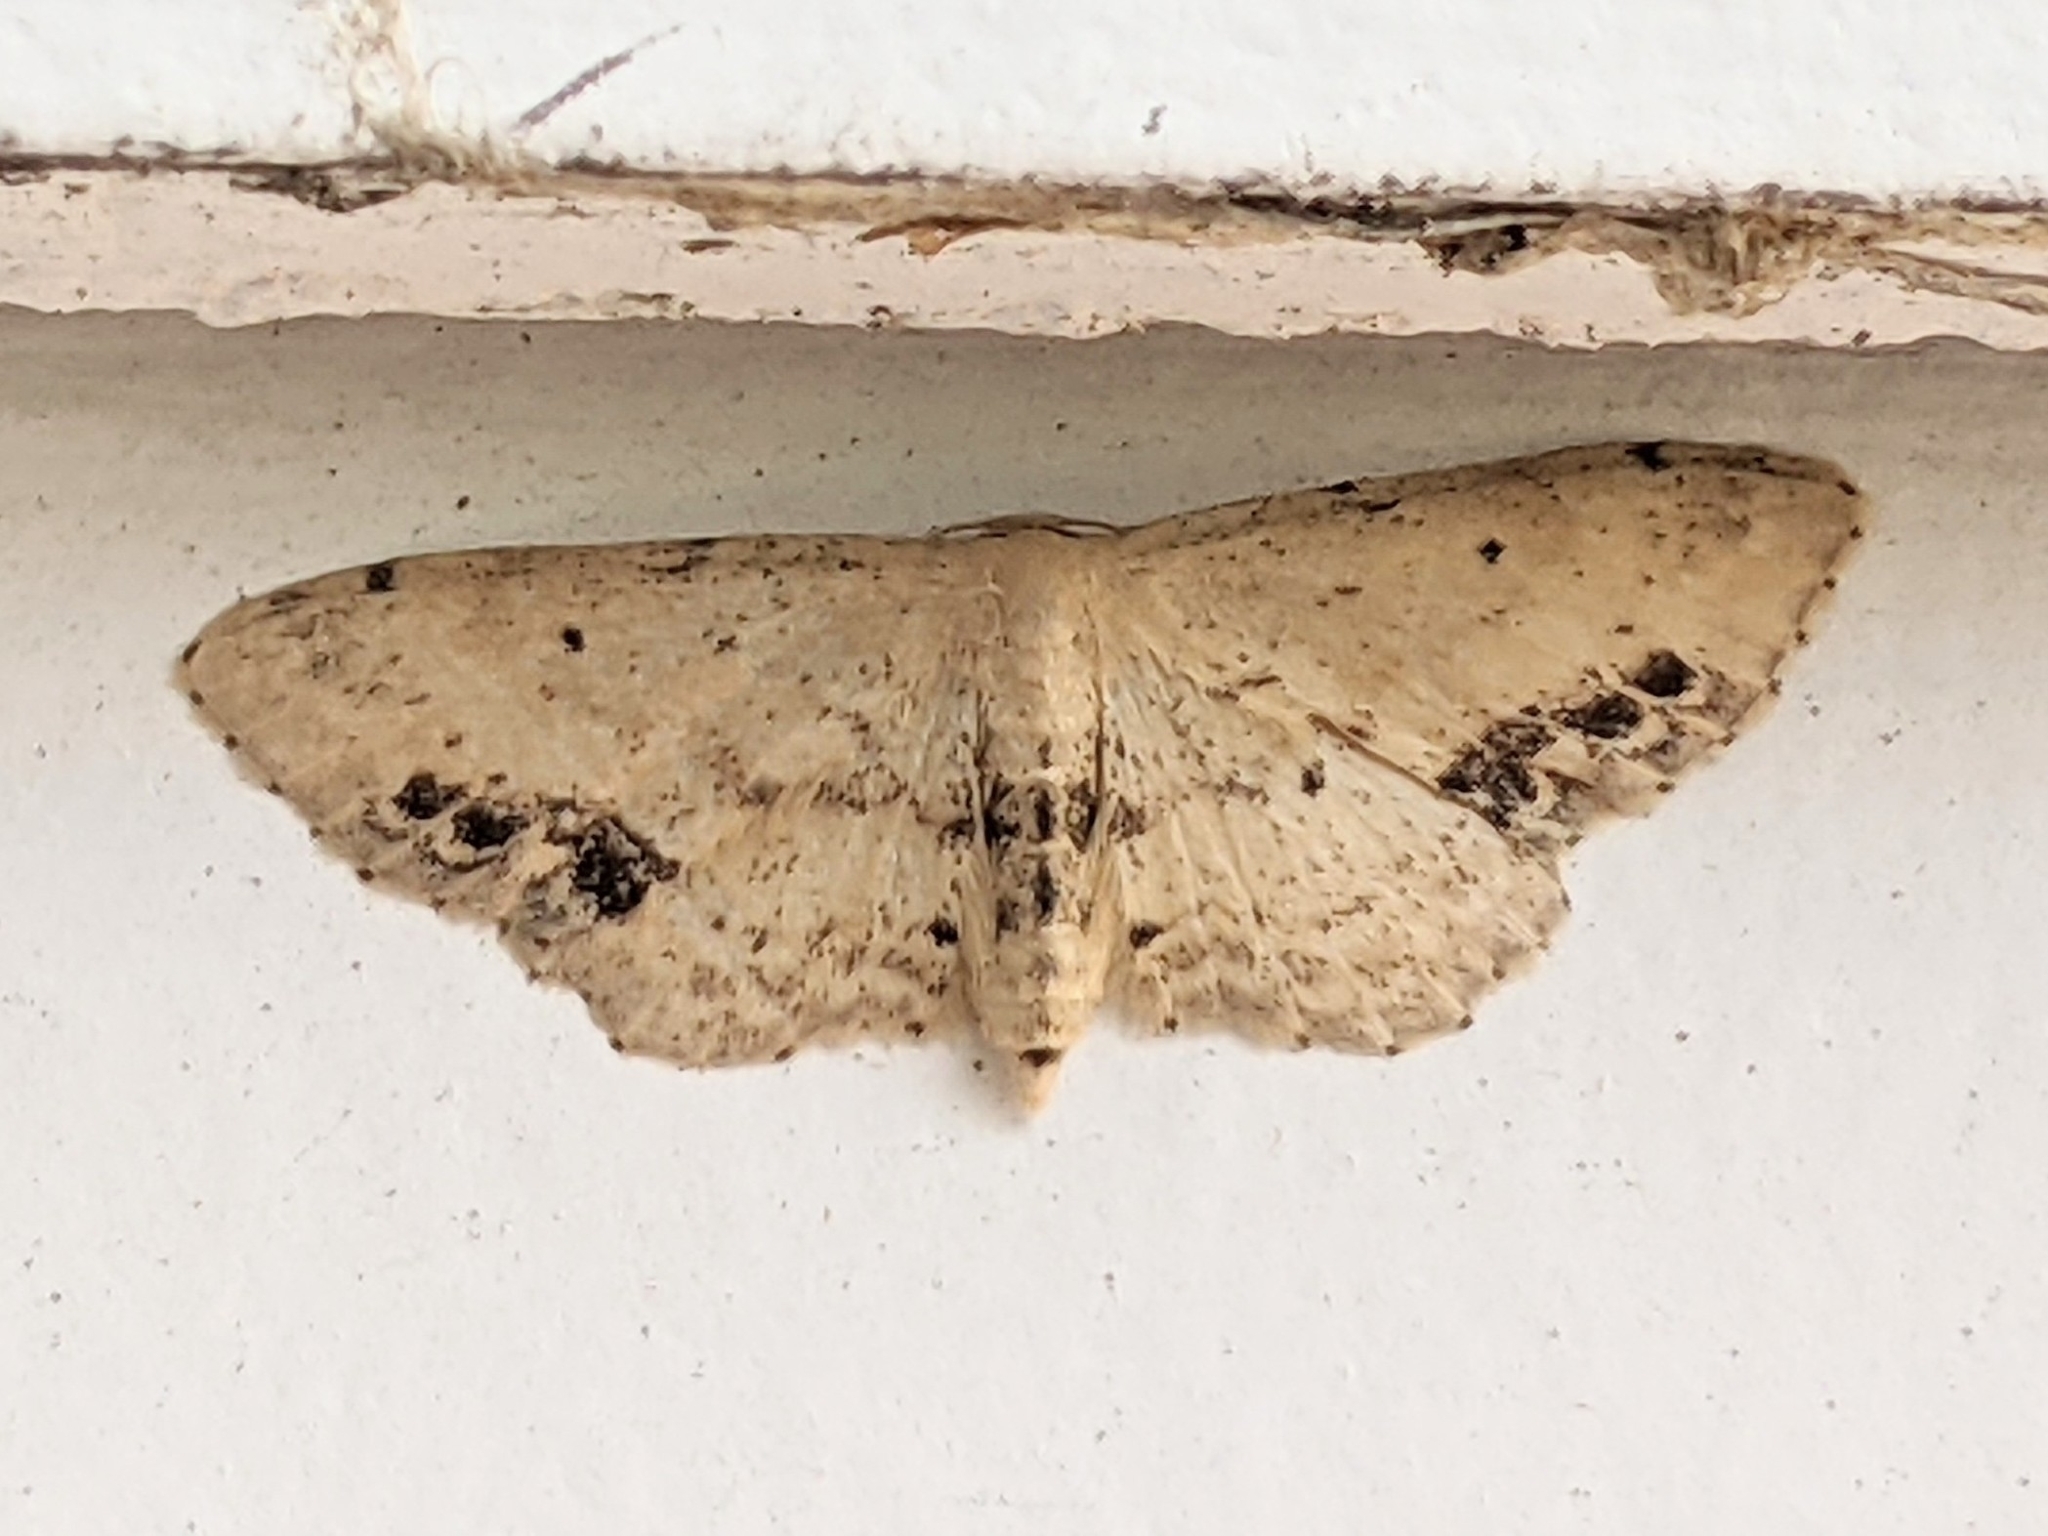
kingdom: Animalia
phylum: Arthropoda
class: Insecta
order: Lepidoptera
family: Geometridae
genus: Idaea
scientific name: Idaea dimidiata
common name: Single-dotted wave
